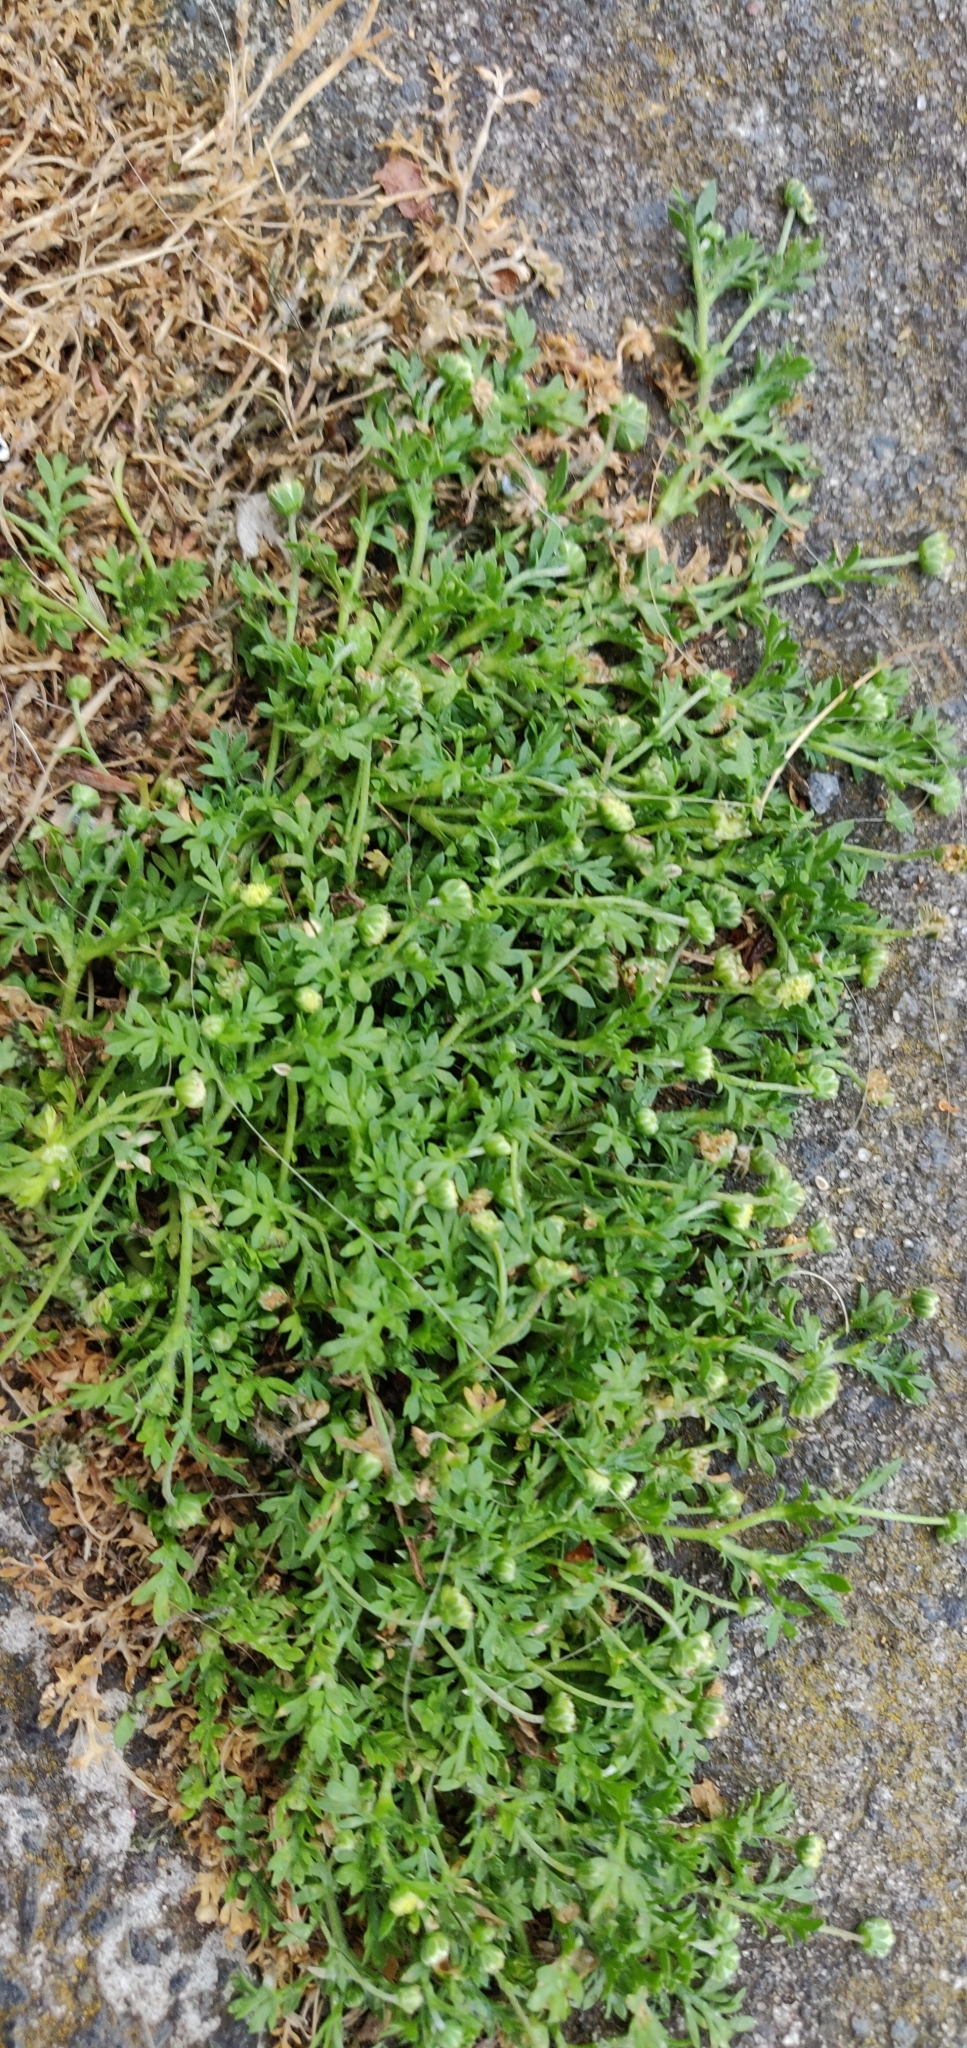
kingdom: Plantae
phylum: Tracheophyta
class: Magnoliopsida
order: Asterales
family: Asteraceae
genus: Cotula
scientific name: Cotula australis
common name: Australian waterbuttons
